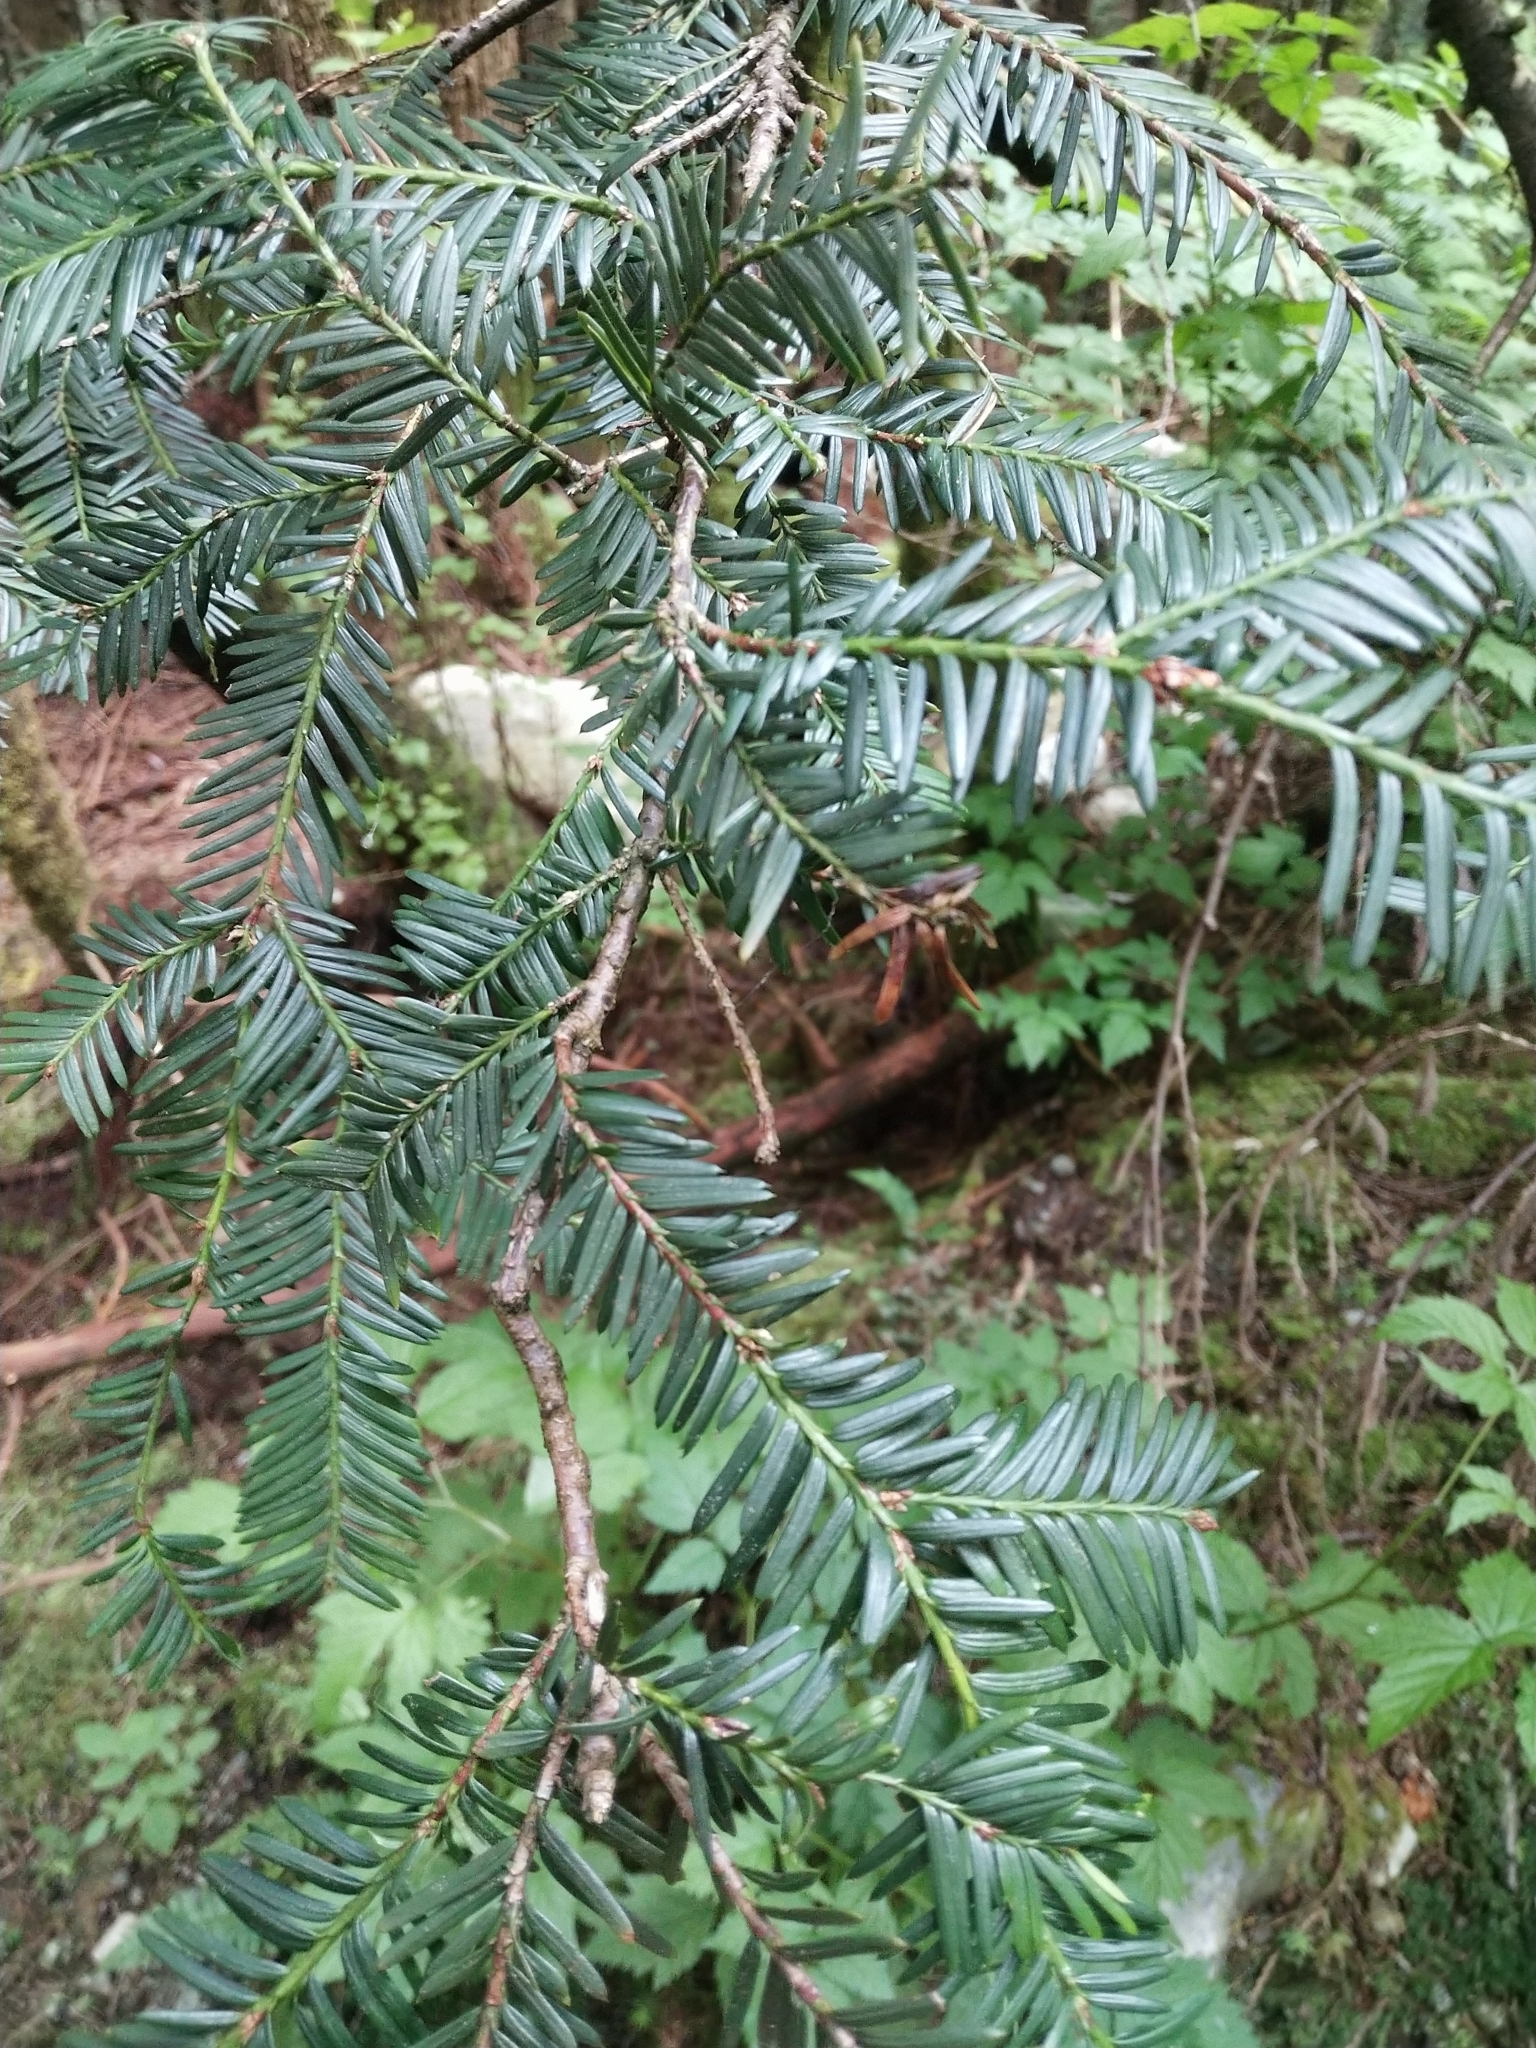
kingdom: Plantae
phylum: Tracheophyta
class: Pinopsida
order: Pinales
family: Taxaceae
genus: Taxus
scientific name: Taxus brevifolia
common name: Pacific yew
